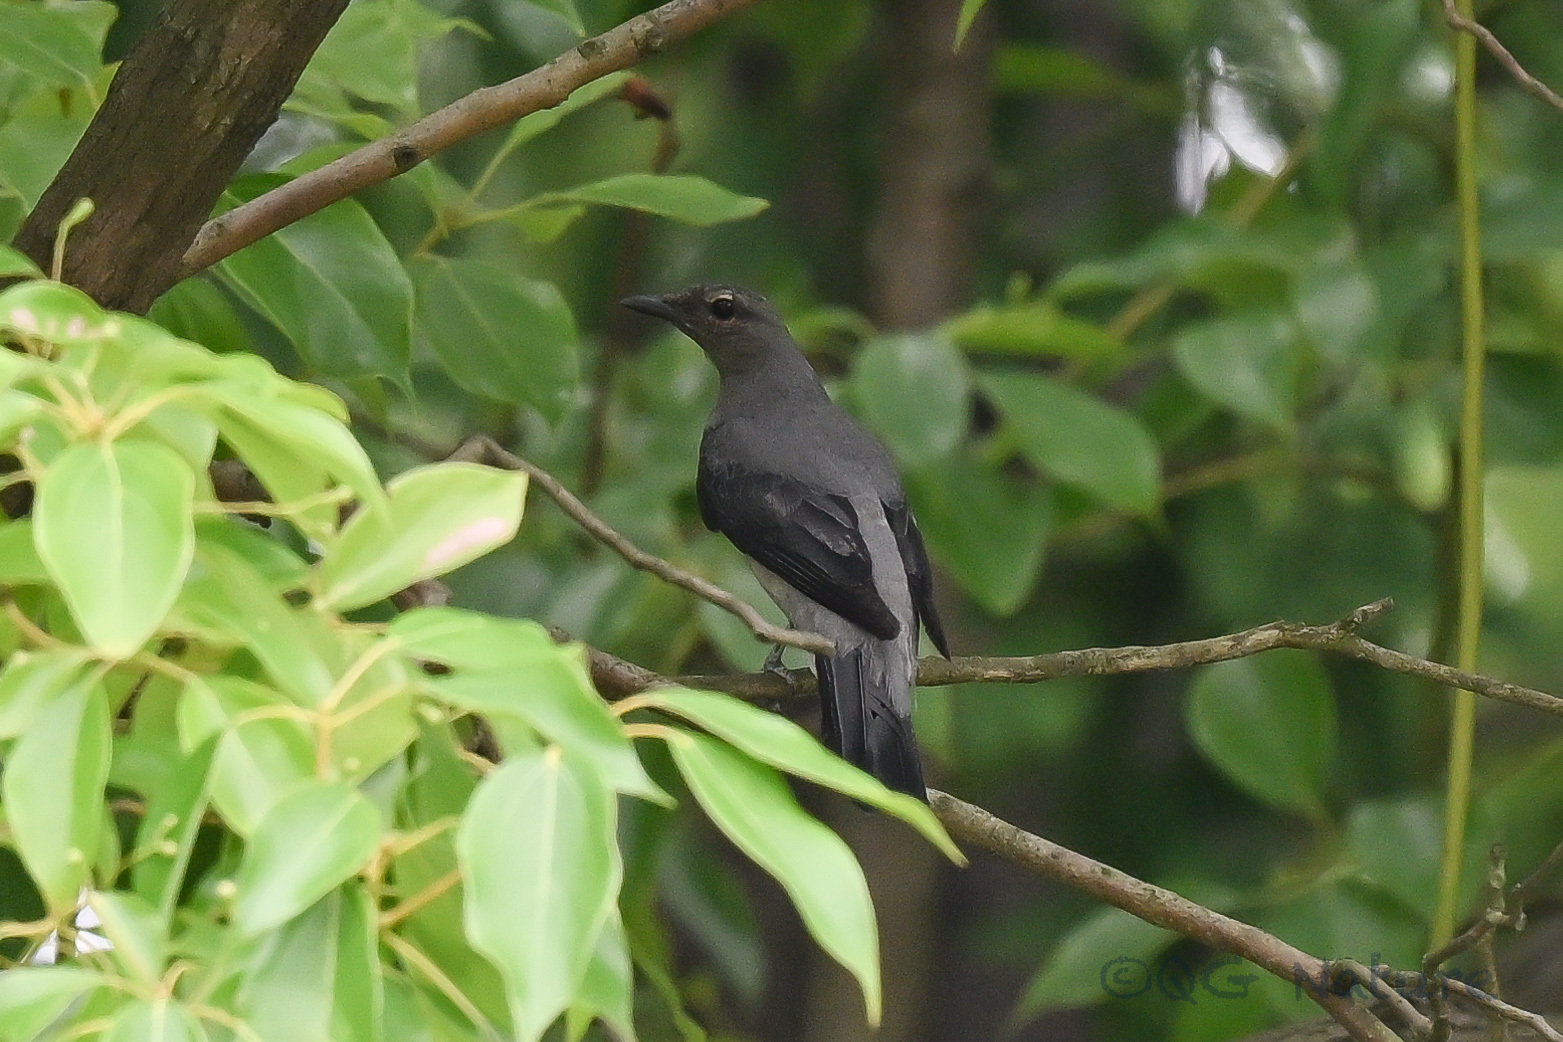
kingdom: Animalia
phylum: Chordata
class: Aves
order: Passeriformes
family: Campephagidae
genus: Coracina
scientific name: Coracina melaschistos
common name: Black-winged cuckooshrike
